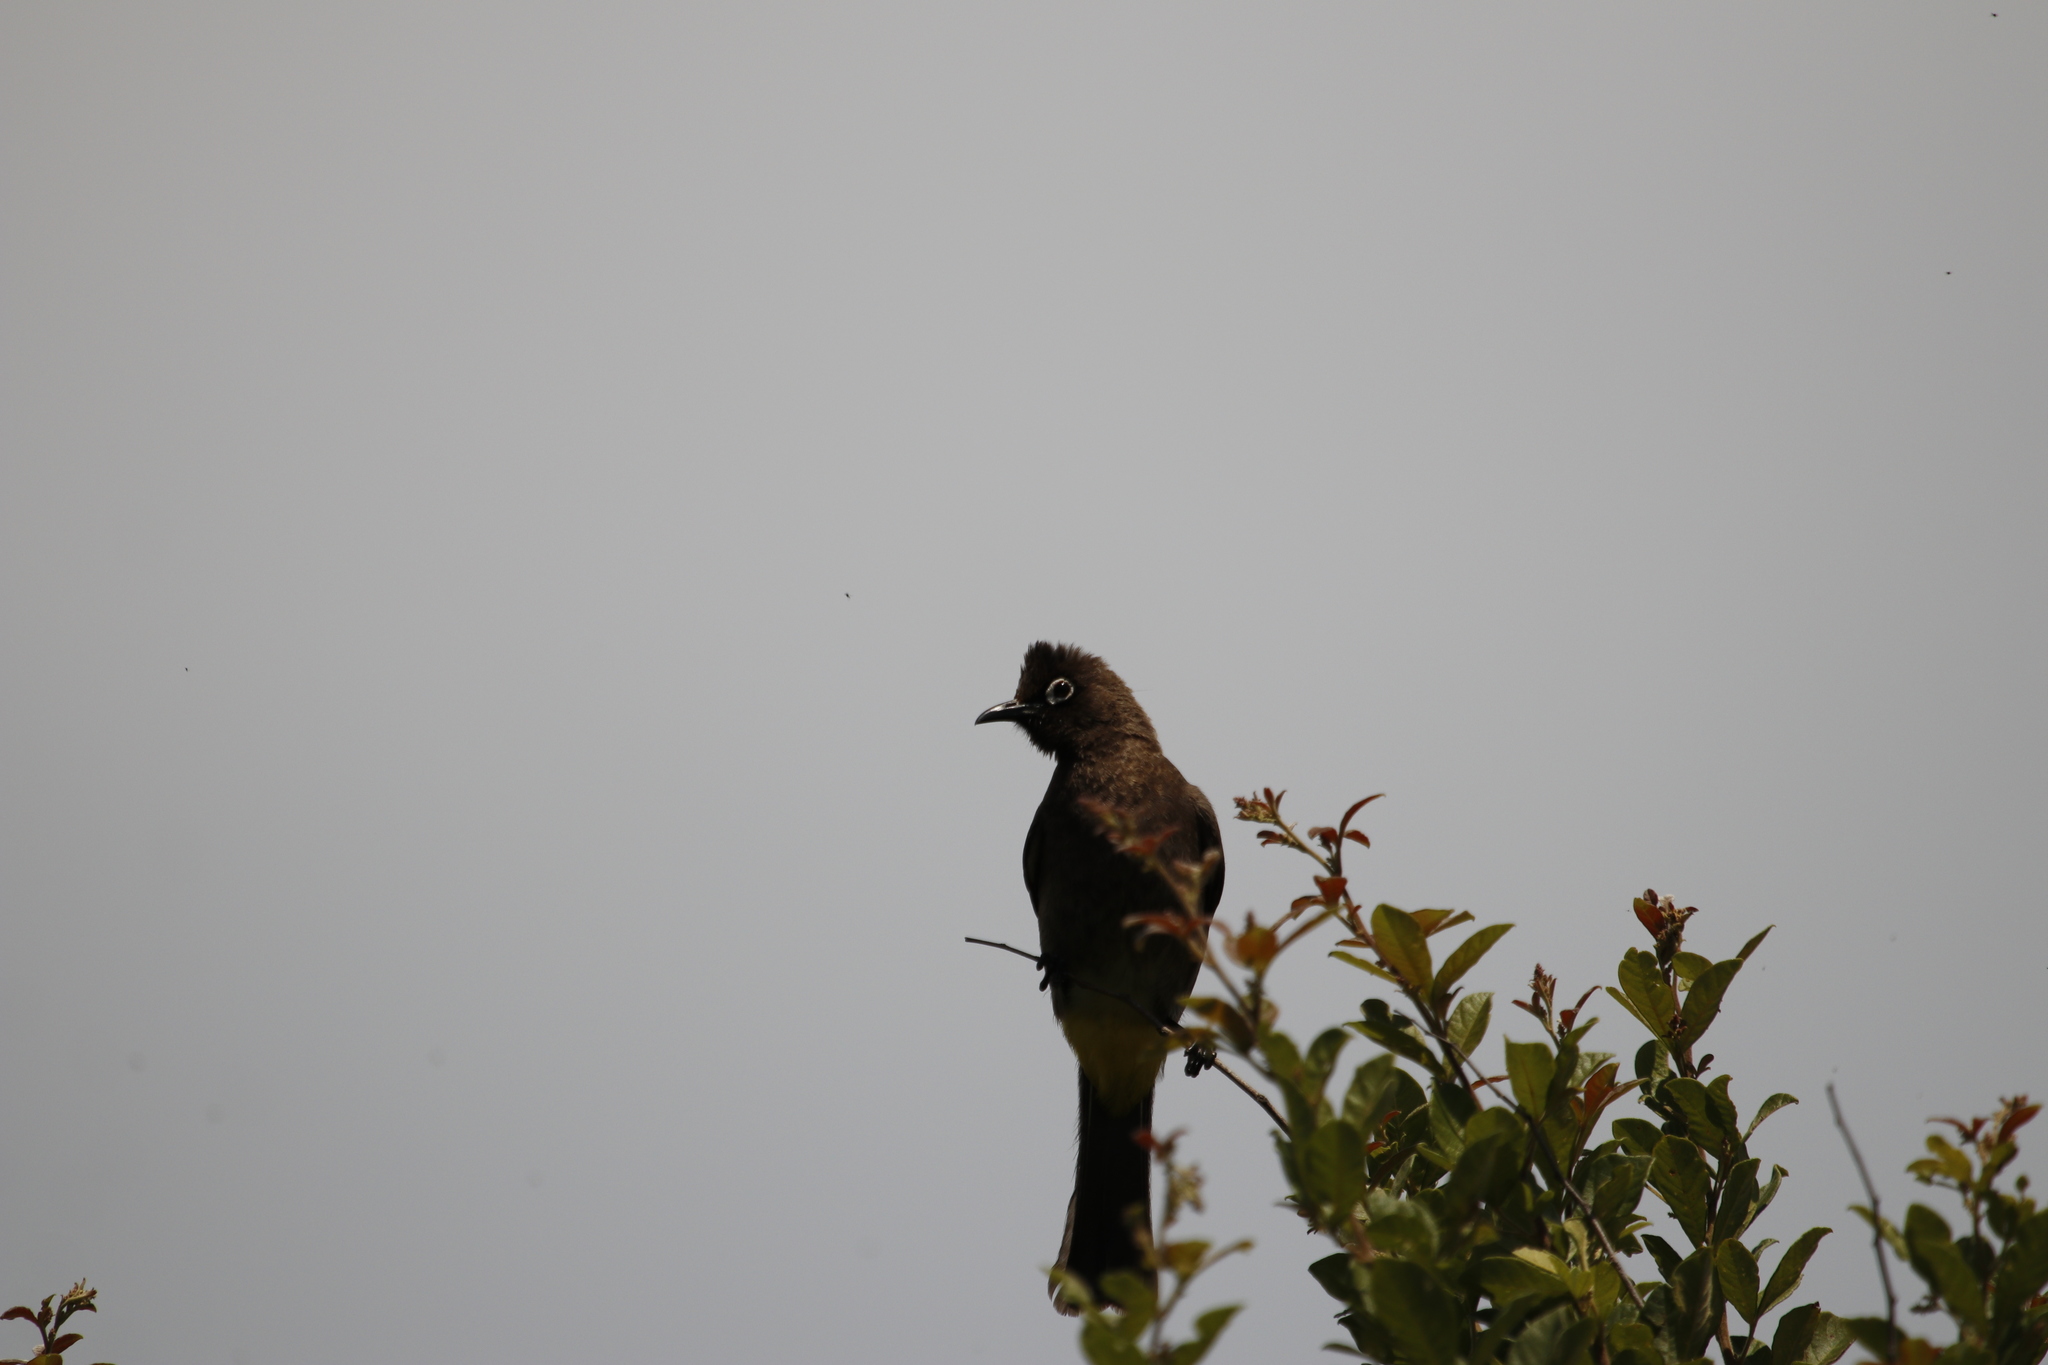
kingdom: Animalia
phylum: Chordata
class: Aves
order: Passeriformes
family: Pycnonotidae
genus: Pycnonotus
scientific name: Pycnonotus capensis
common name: Cape bulbul
